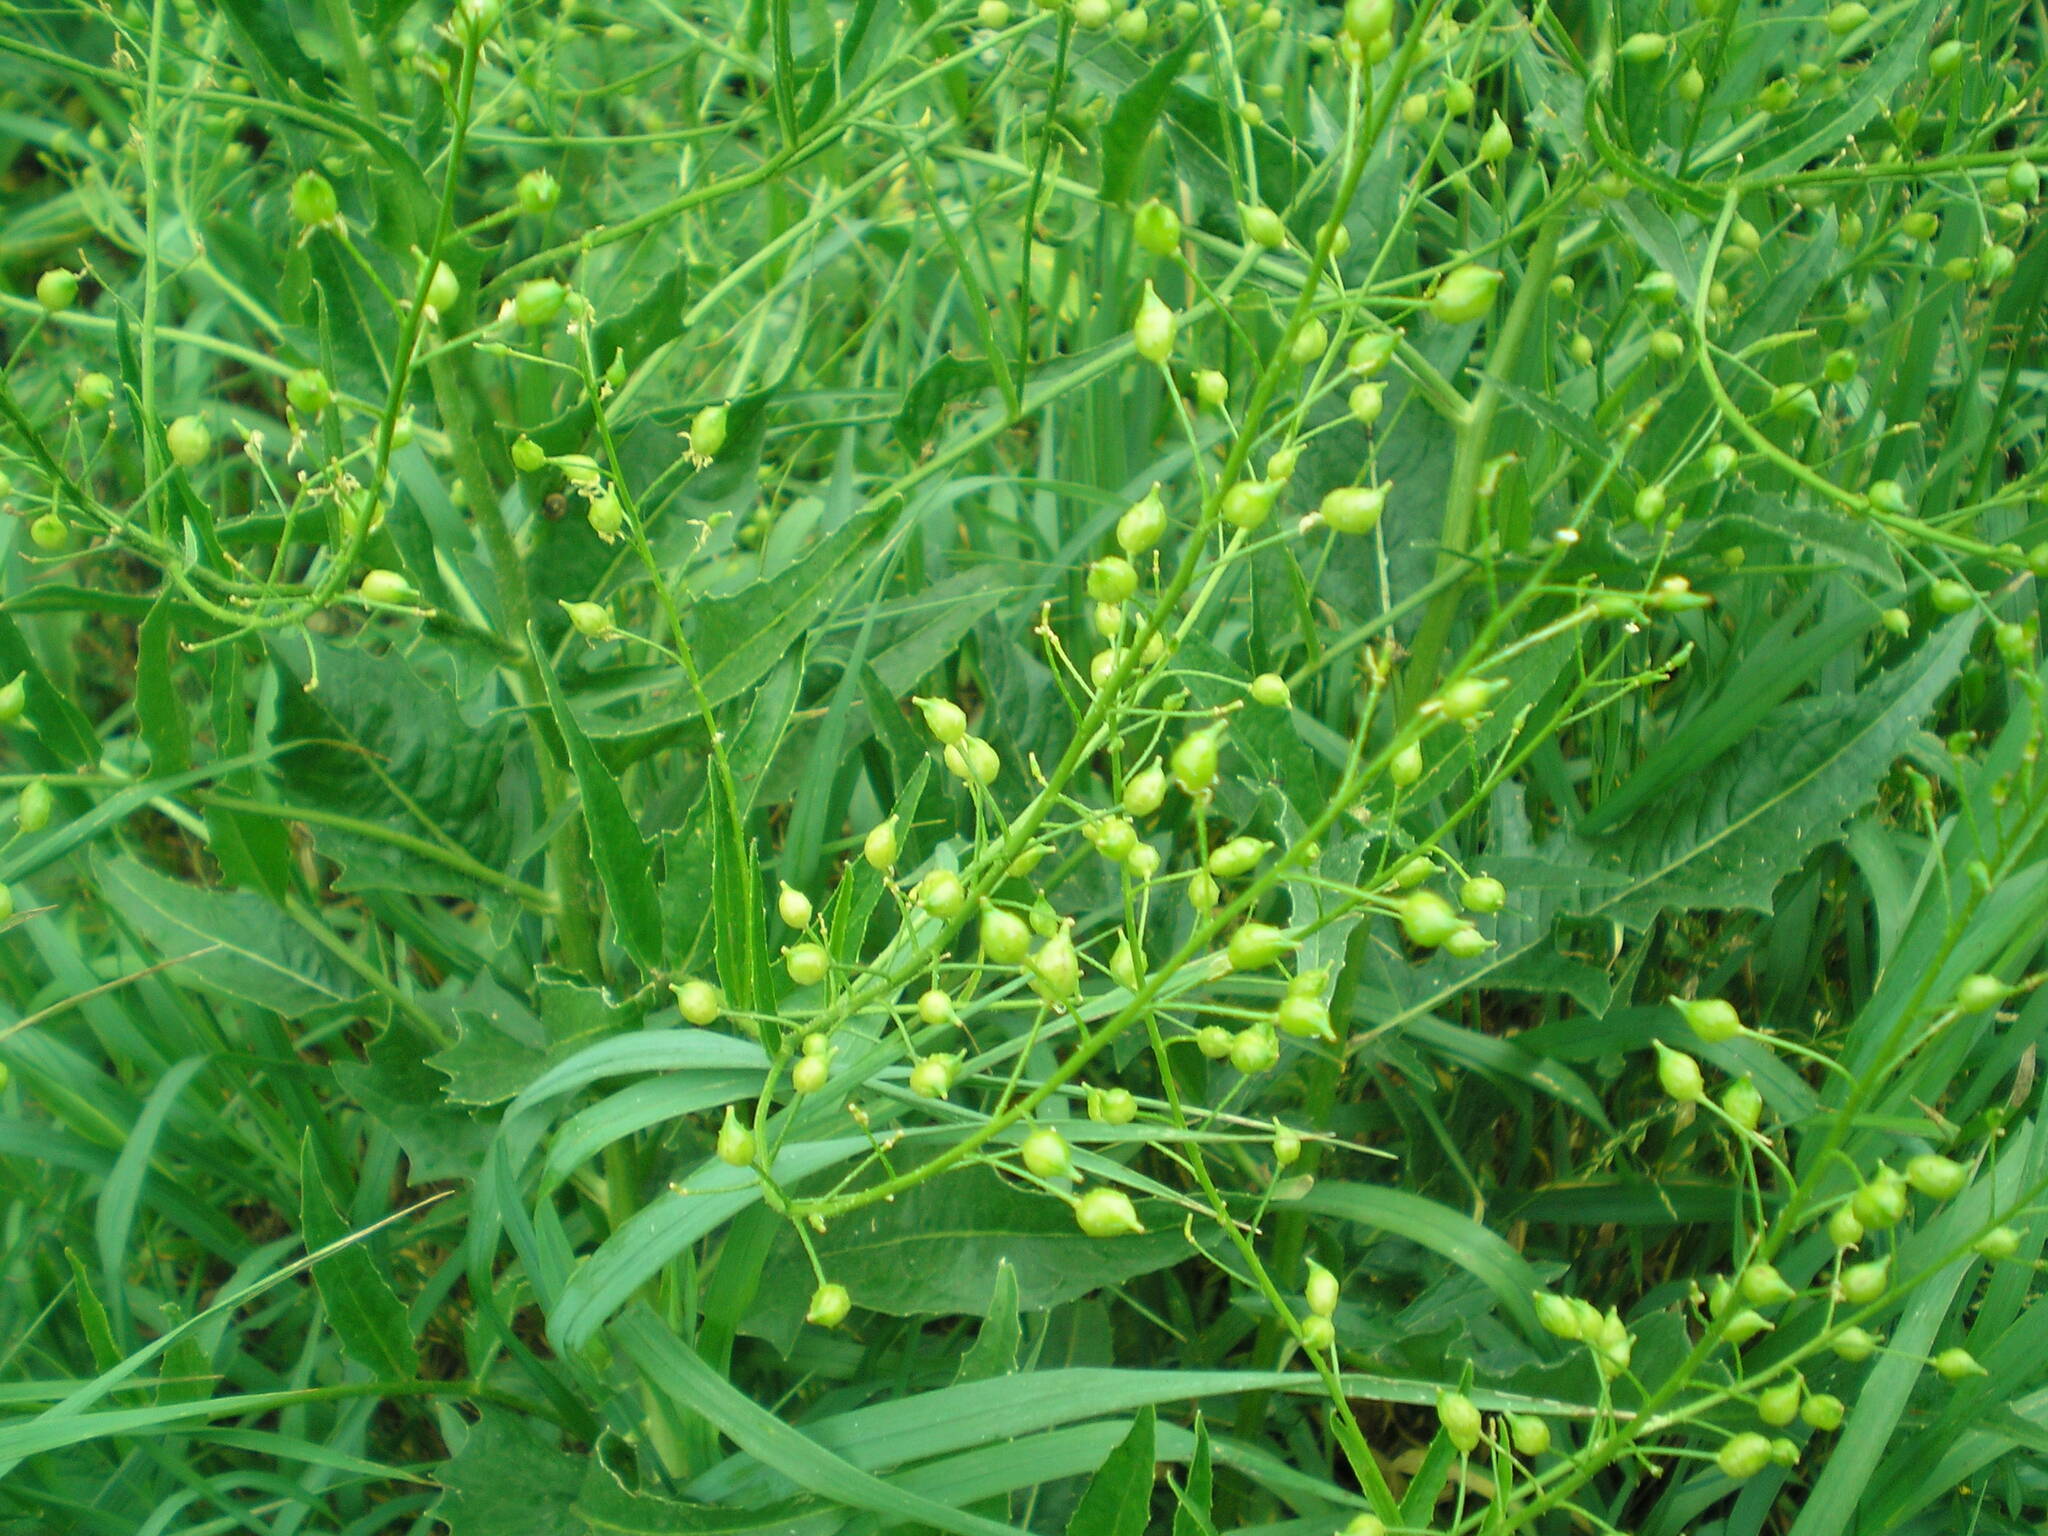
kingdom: Plantae
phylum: Tracheophyta
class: Magnoliopsida
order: Brassicales
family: Brassicaceae
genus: Bunias
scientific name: Bunias orientalis
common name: Warty-cabbage
